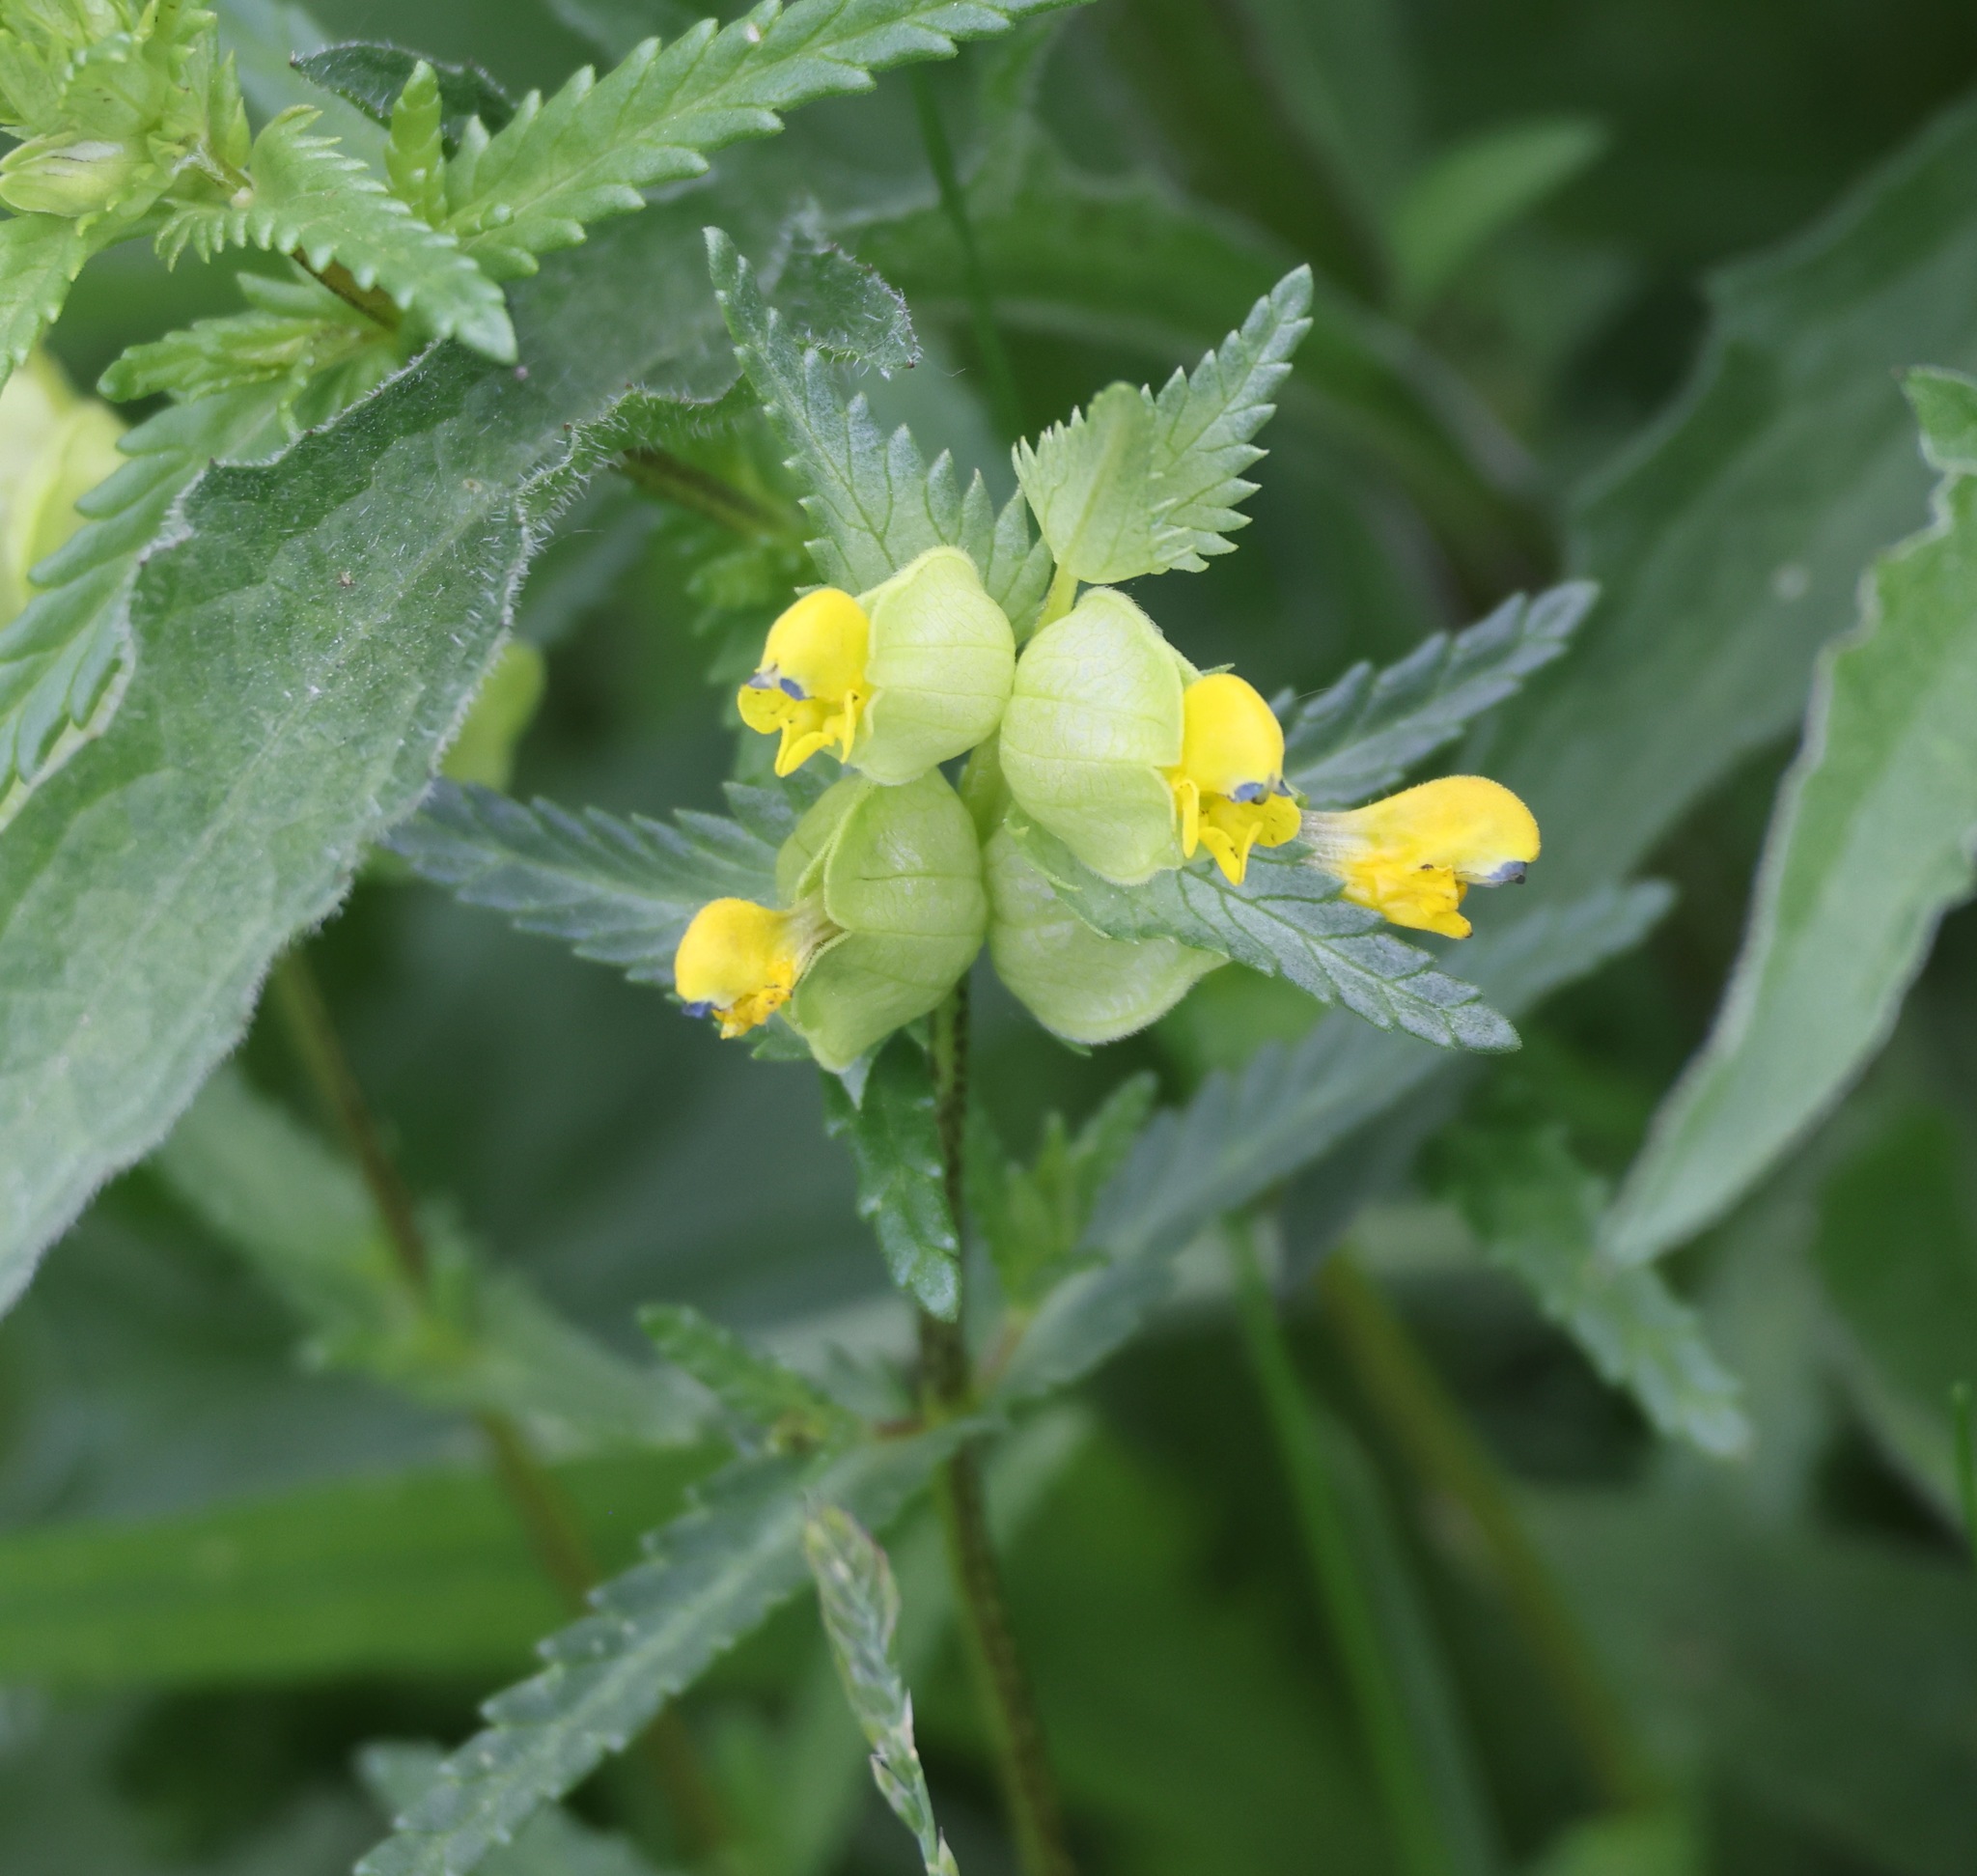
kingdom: Plantae
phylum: Tracheophyta
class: Magnoliopsida
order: Lamiales
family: Orobanchaceae
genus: Rhinanthus
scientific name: Rhinanthus minor
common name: Yellow-rattle
